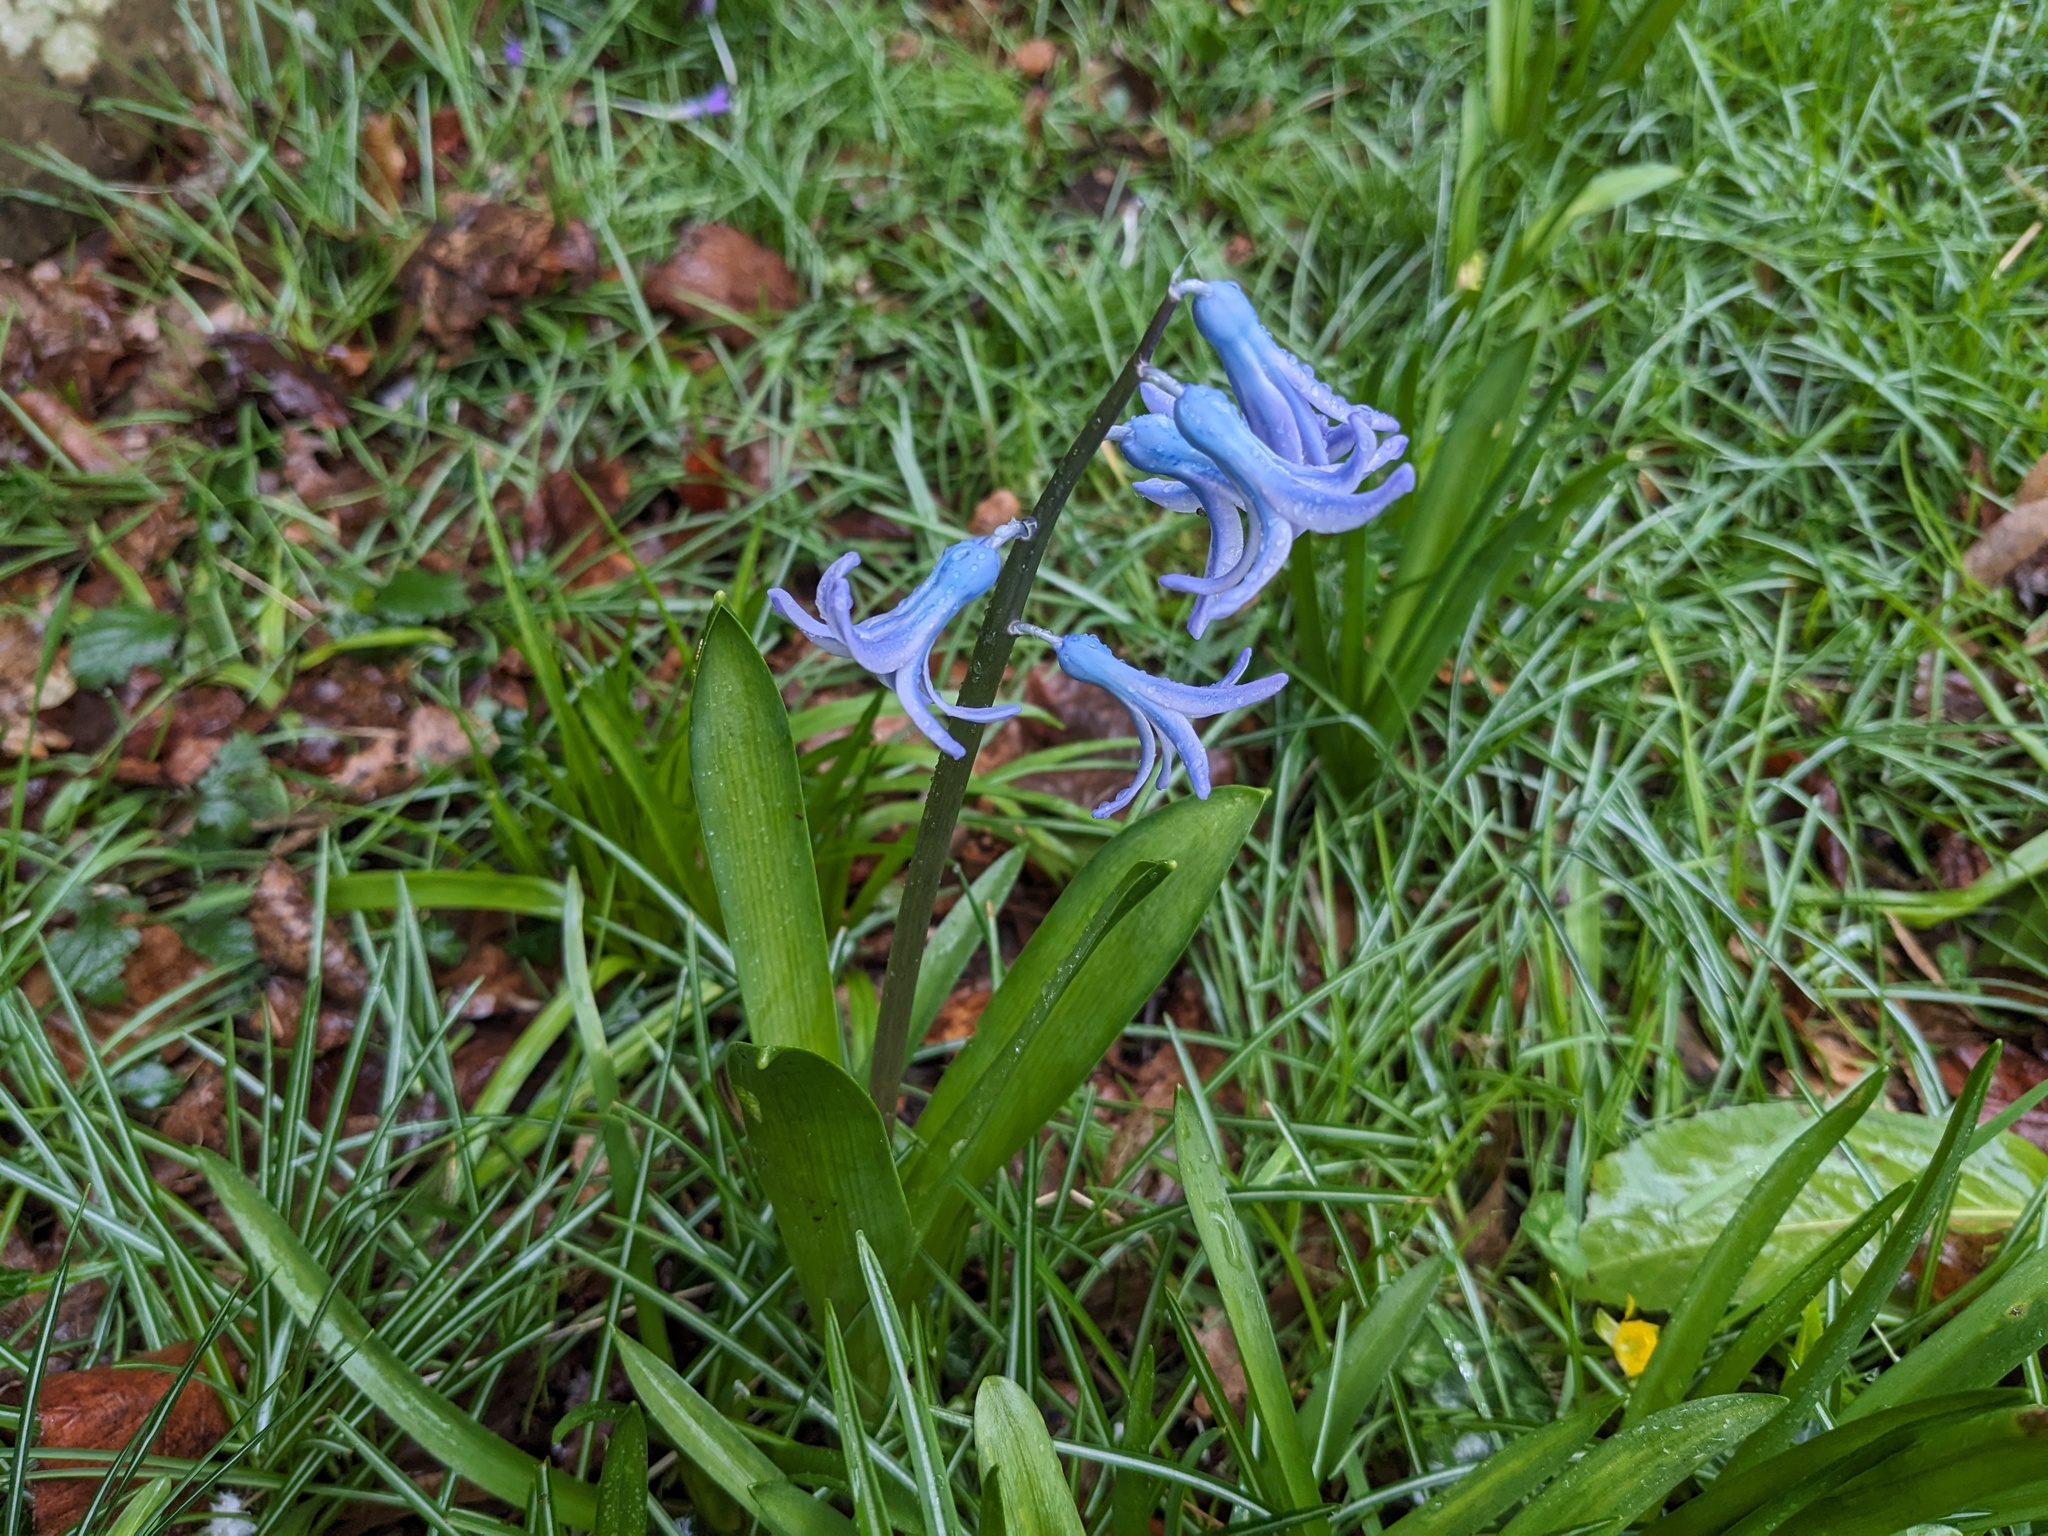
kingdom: Plantae
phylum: Tracheophyta
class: Liliopsida
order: Asparagales
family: Asparagaceae
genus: Hyacinthus
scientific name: Hyacinthus orientalis
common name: Hyacinth
